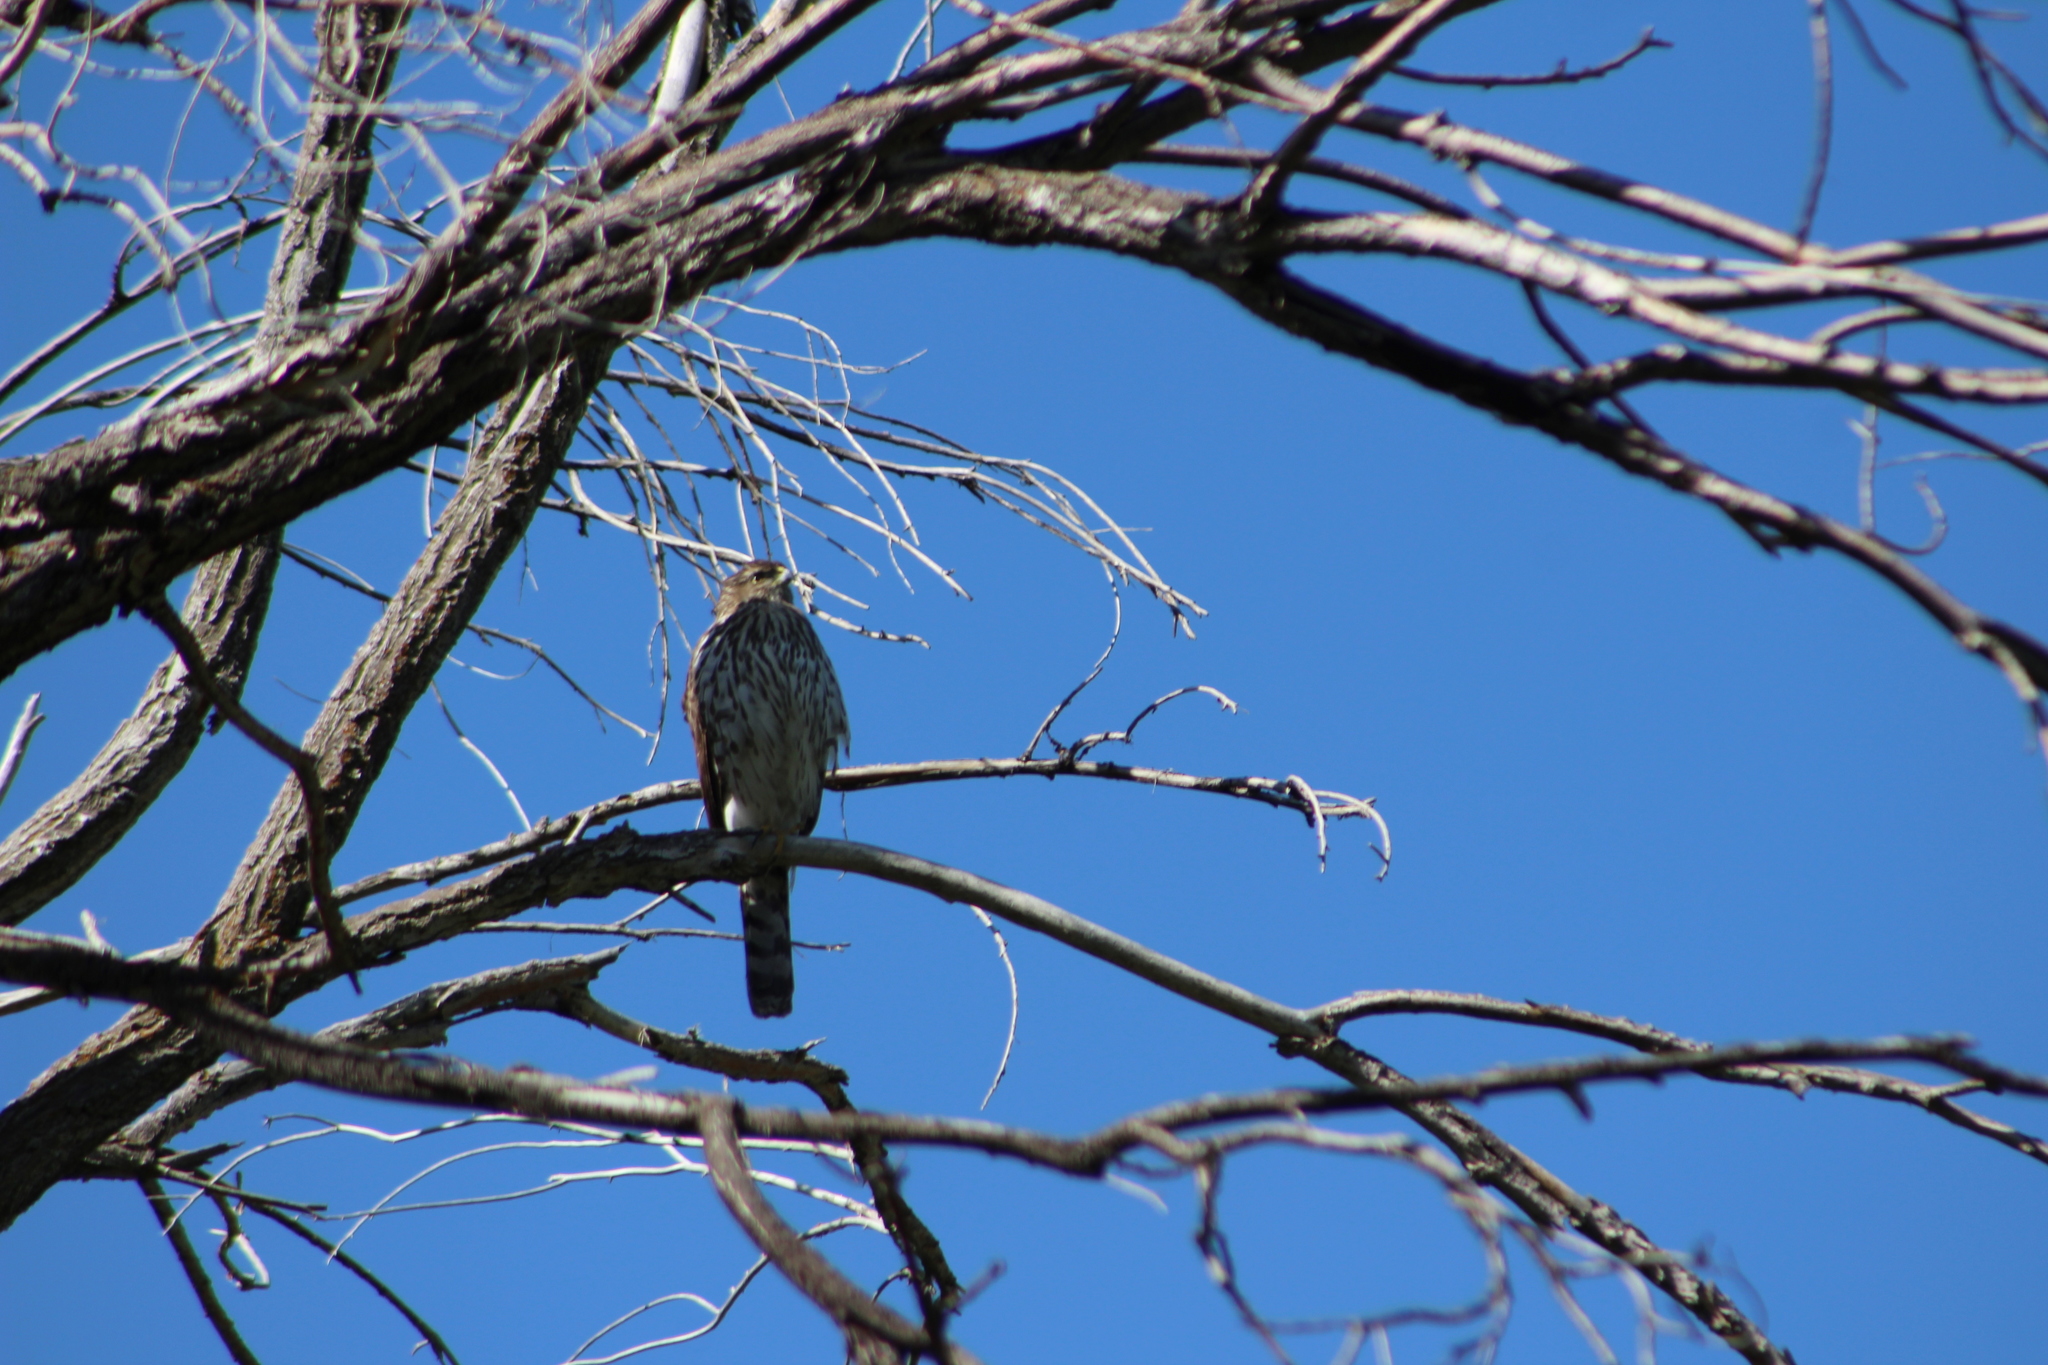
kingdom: Animalia
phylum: Chordata
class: Aves
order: Accipitriformes
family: Accipitridae
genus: Accipiter
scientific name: Accipiter cooperii
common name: Cooper's hawk
